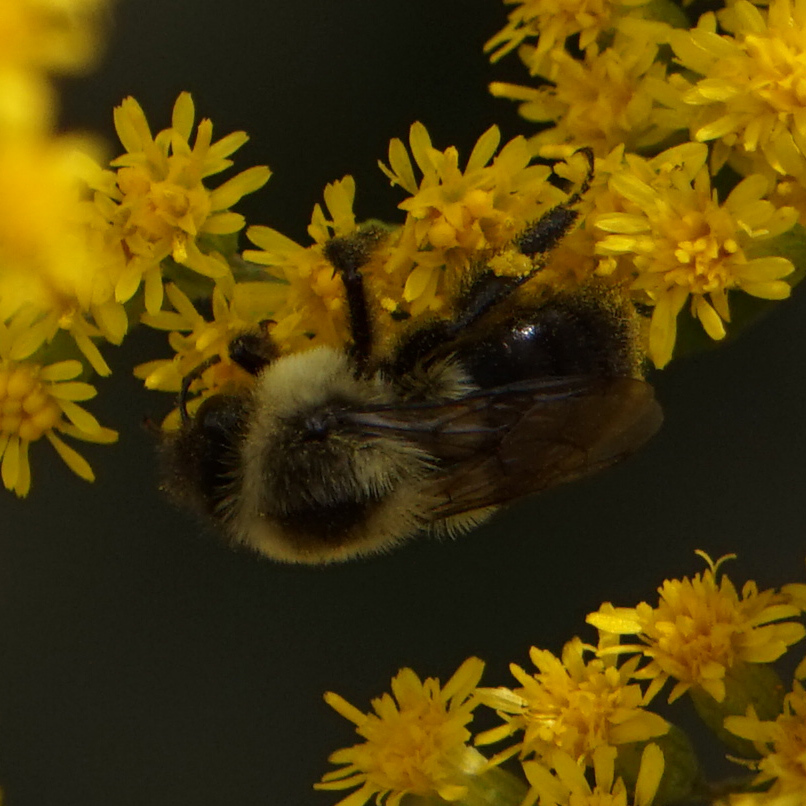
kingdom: Animalia
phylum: Arthropoda
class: Insecta
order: Hymenoptera
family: Apidae
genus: Bombus
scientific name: Bombus impatiens
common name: Common eastern bumble bee
